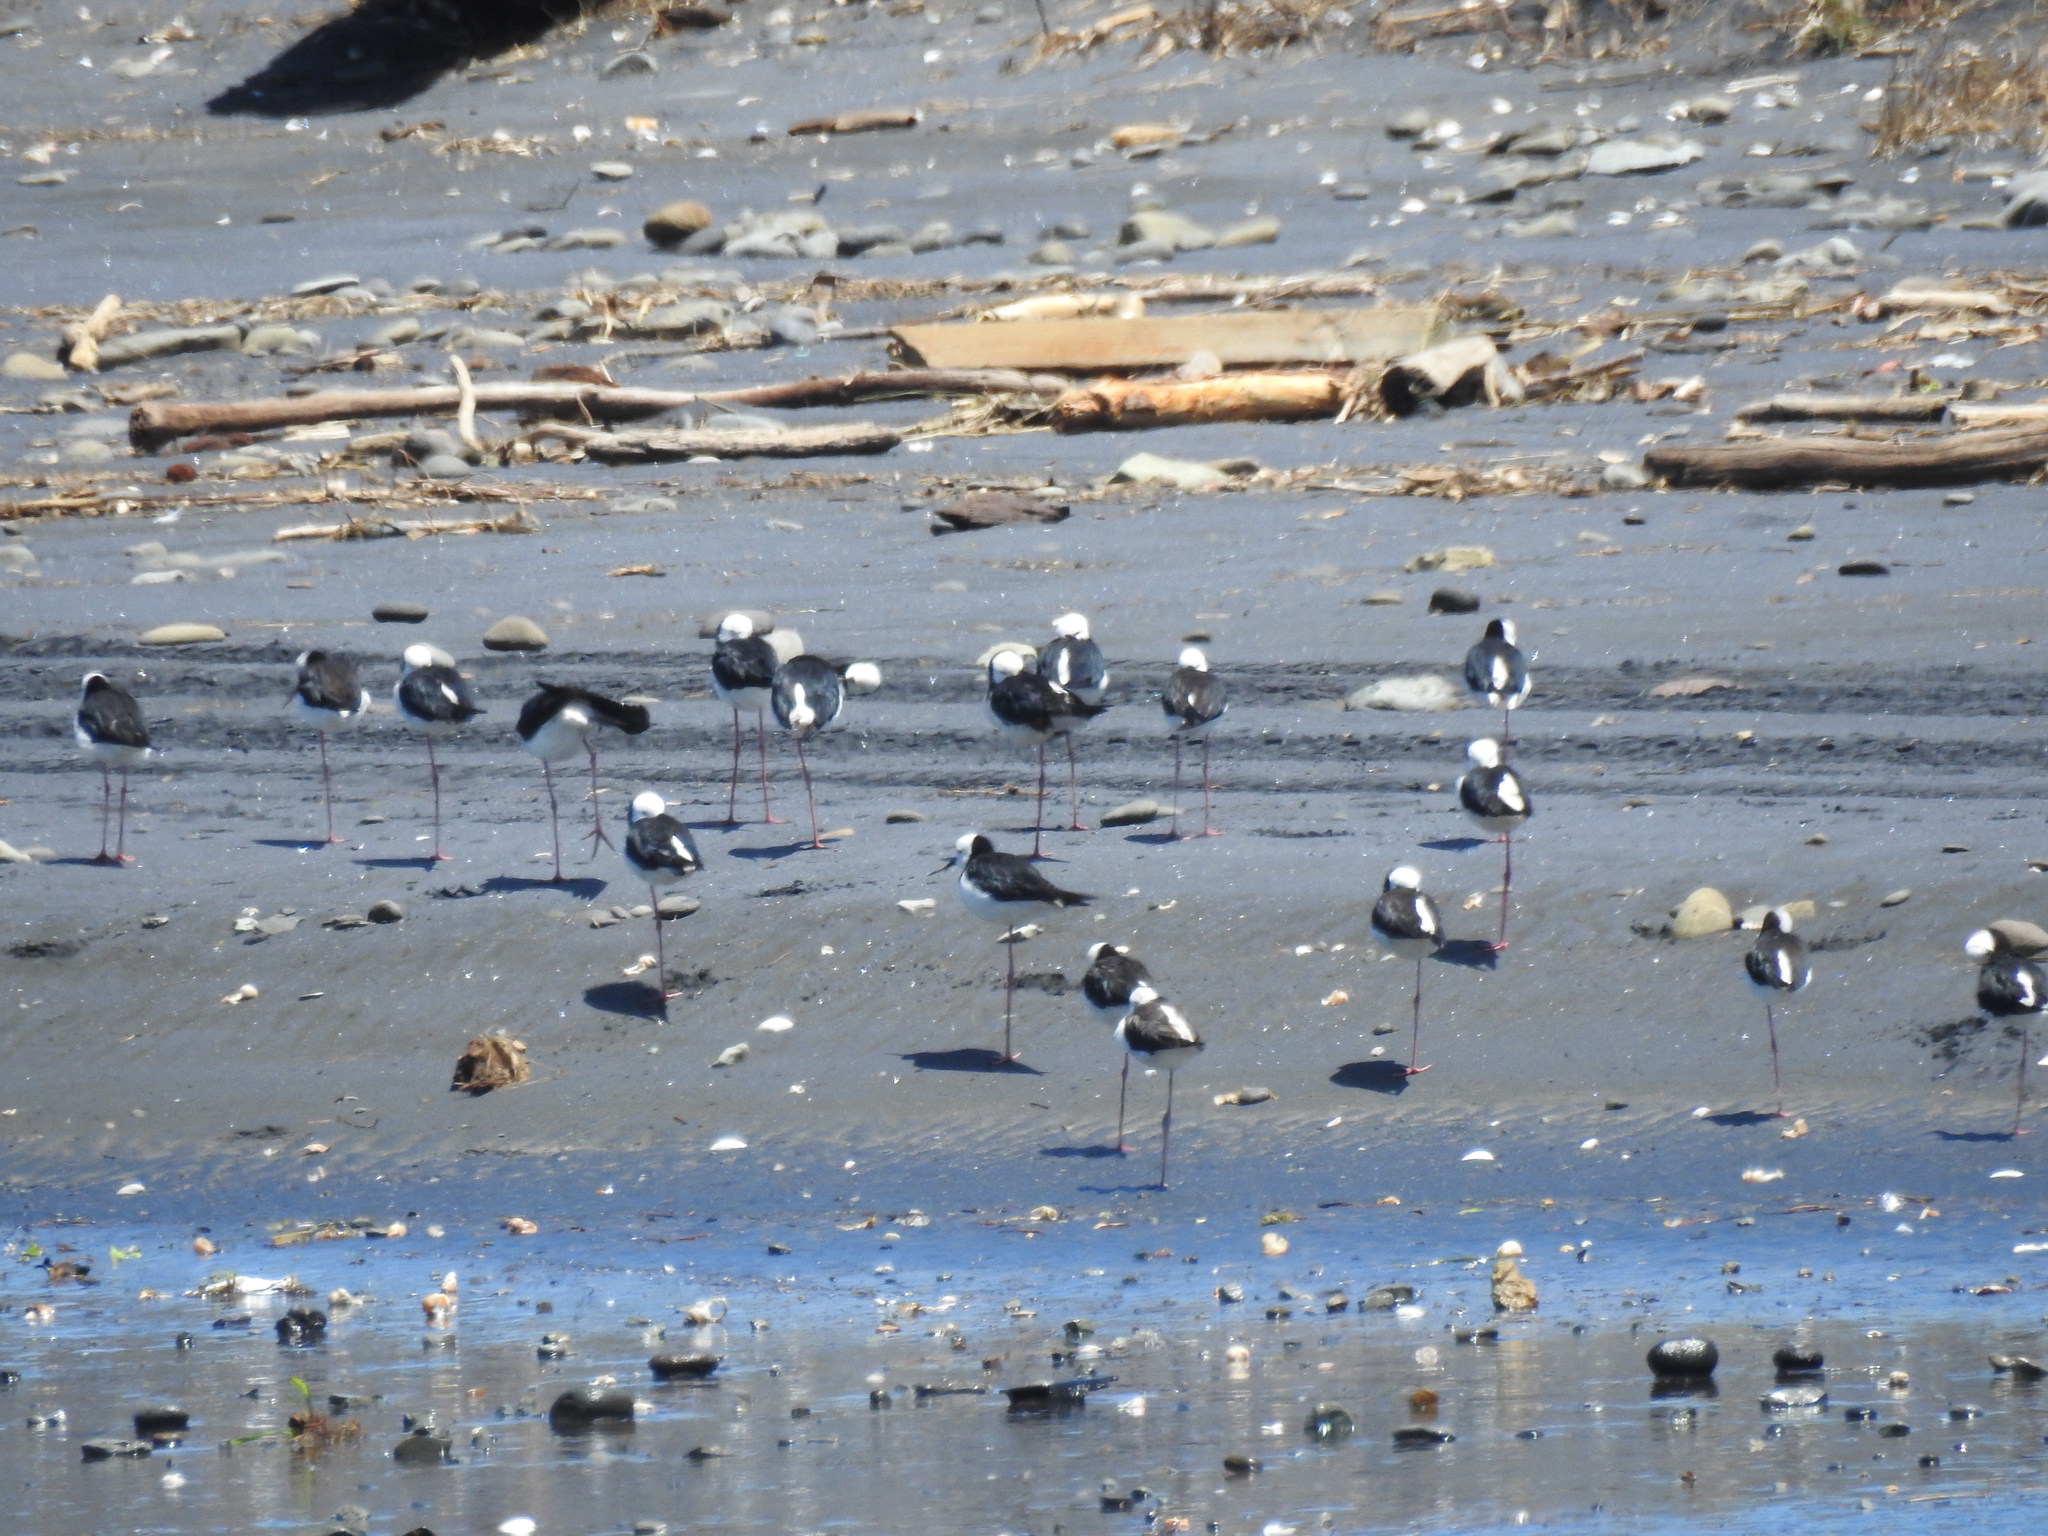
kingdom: Animalia
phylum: Chordata
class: Aves
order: Charadriiformes
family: Recurvirostridae
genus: Himantopus
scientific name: Himantopus leucocephalus
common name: White-headed stilt
